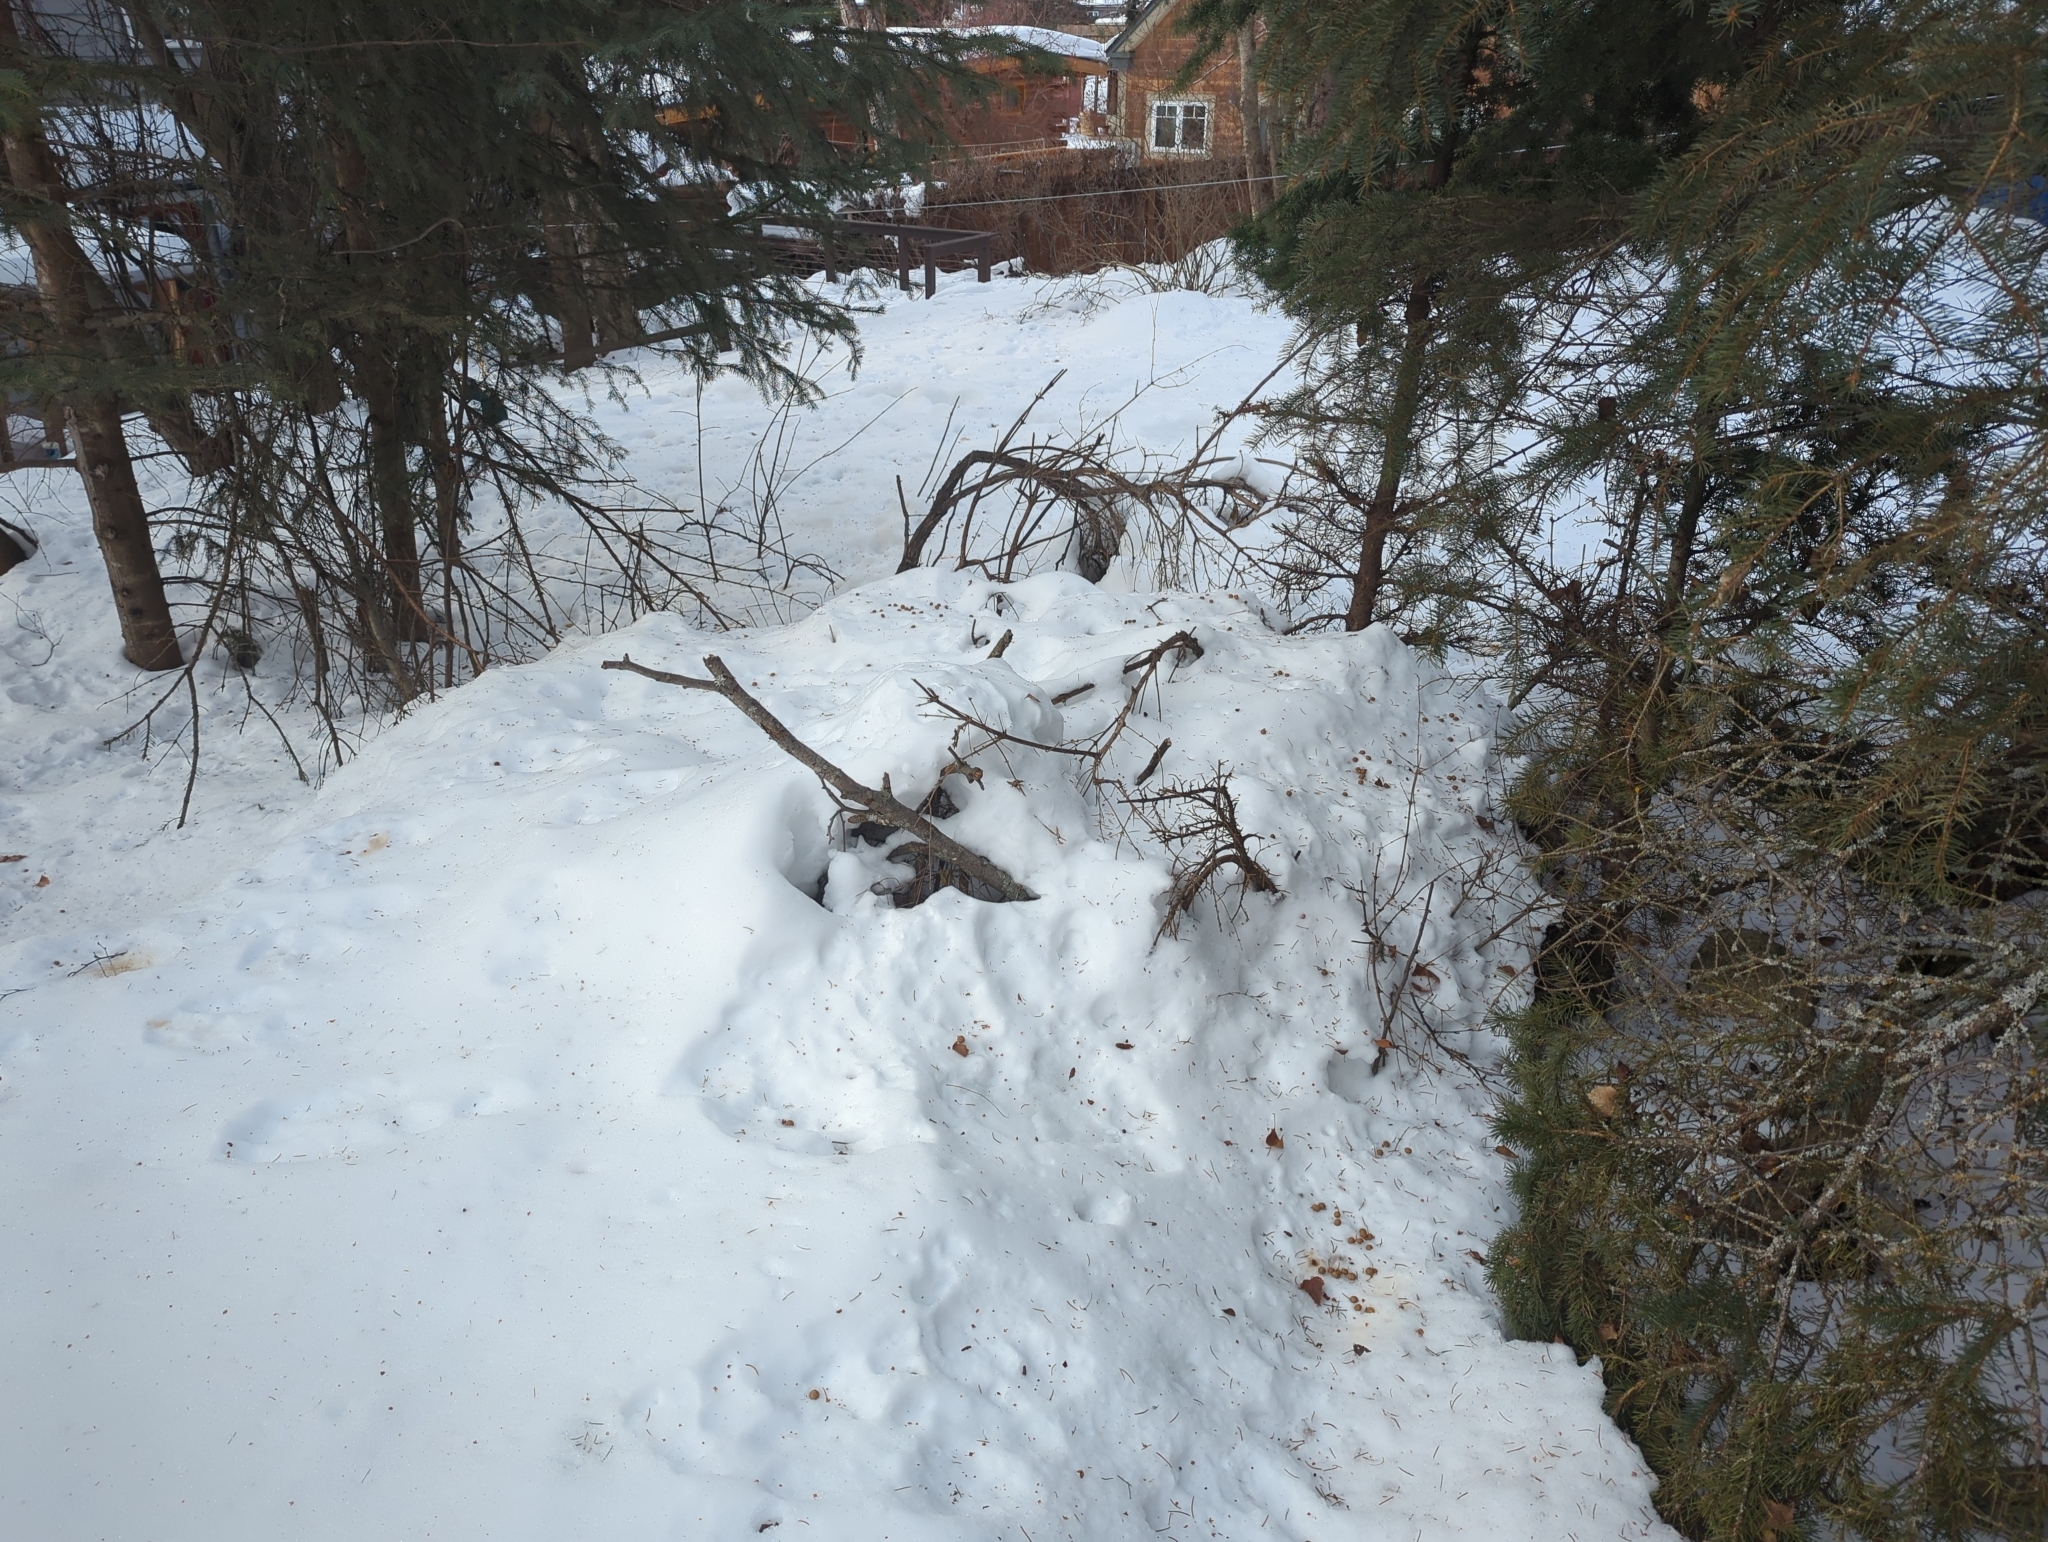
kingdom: Animalia
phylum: Chordata
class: Mammalia
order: Lagomorpha
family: Leporidae
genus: Lepus
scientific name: Lepus americanus
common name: Snowshoe hare
